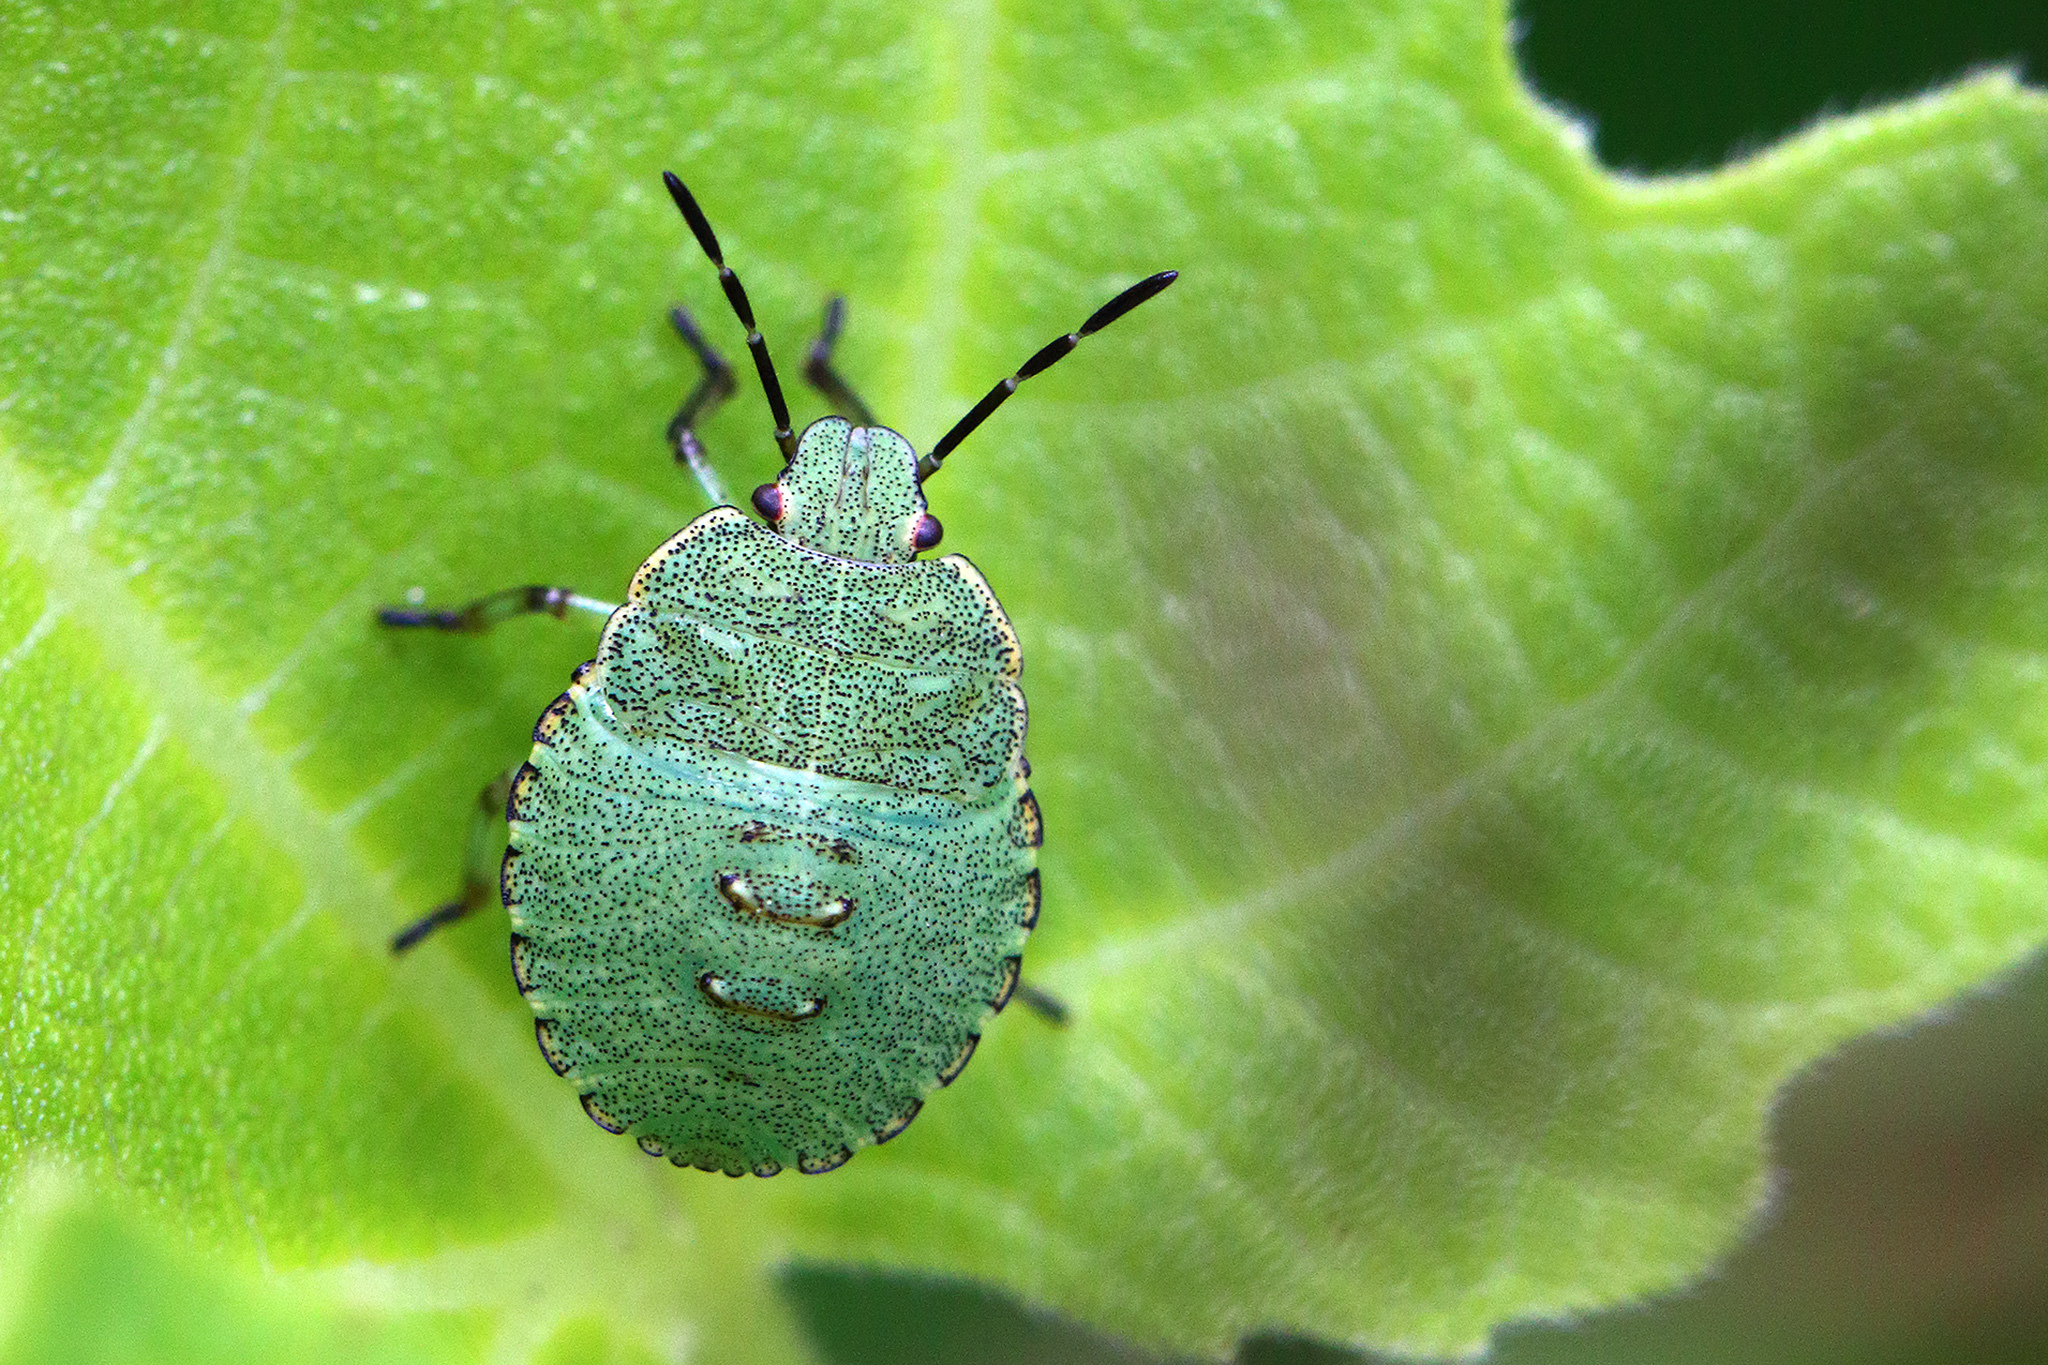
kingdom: Animalia
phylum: Arthropoda
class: Insecta
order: Hemiptera
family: Pentatomidae
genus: Palomena
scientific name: Palomena prasina
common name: Green shieldbug
